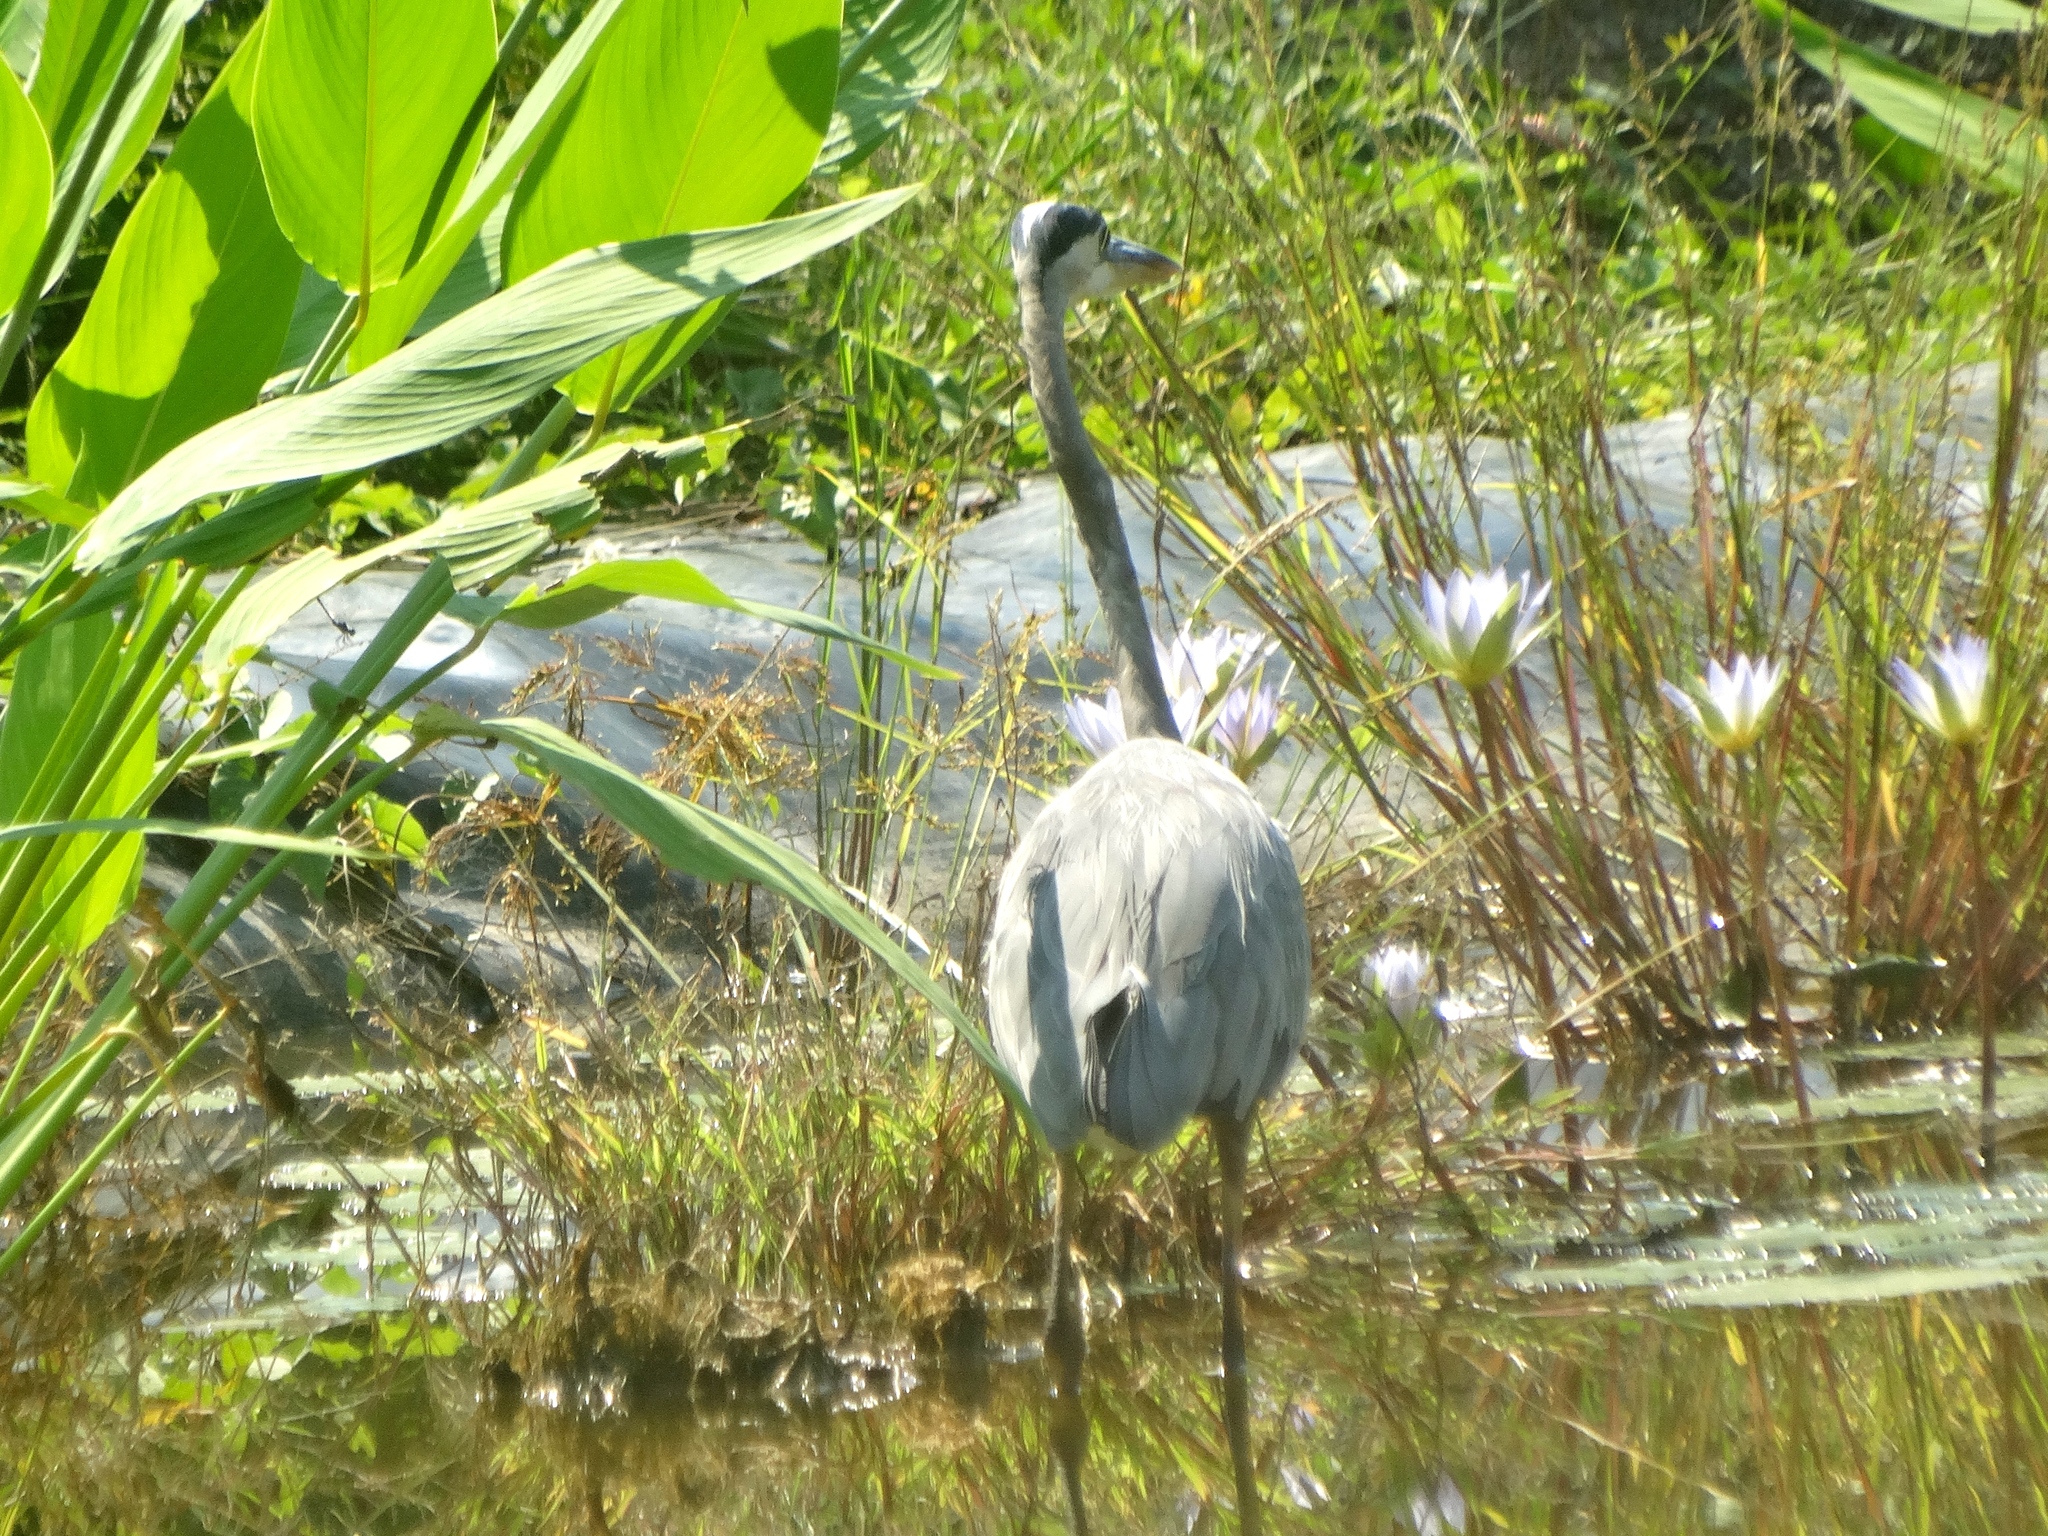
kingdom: Animalia
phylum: Chordata
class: Aves
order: Pelecaniformes
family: Ardeidae
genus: Ardea
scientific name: Ardea herodias
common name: Great blue heron
